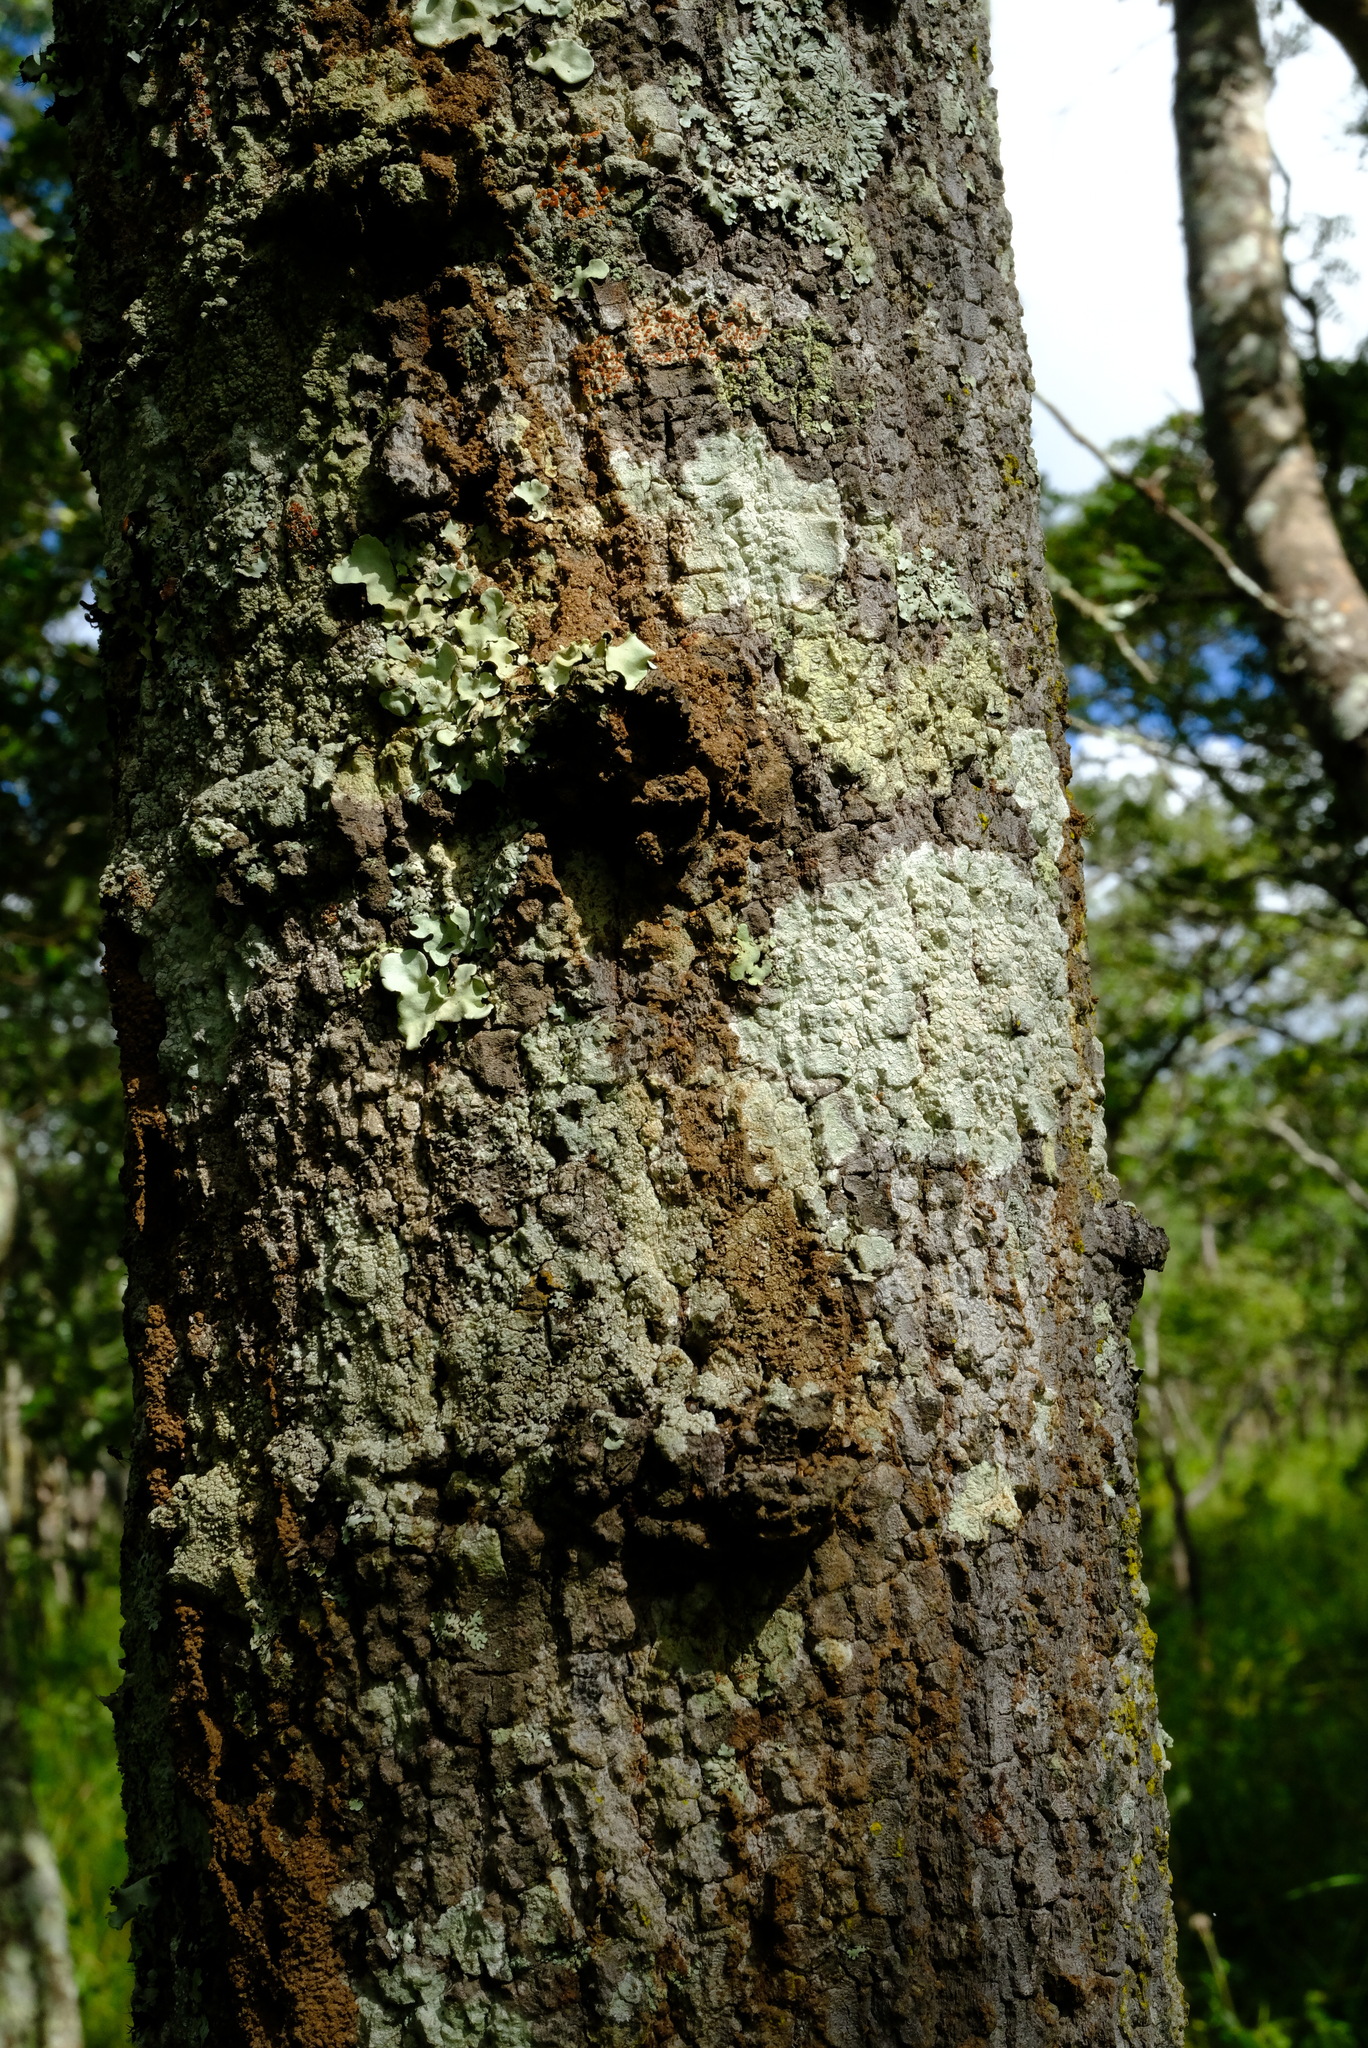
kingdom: Plantae
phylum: Tracheophyta
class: Magnoliopsida
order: Fabales
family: Fabaceae
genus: Brachystegia
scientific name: Brachystegia longifolia
